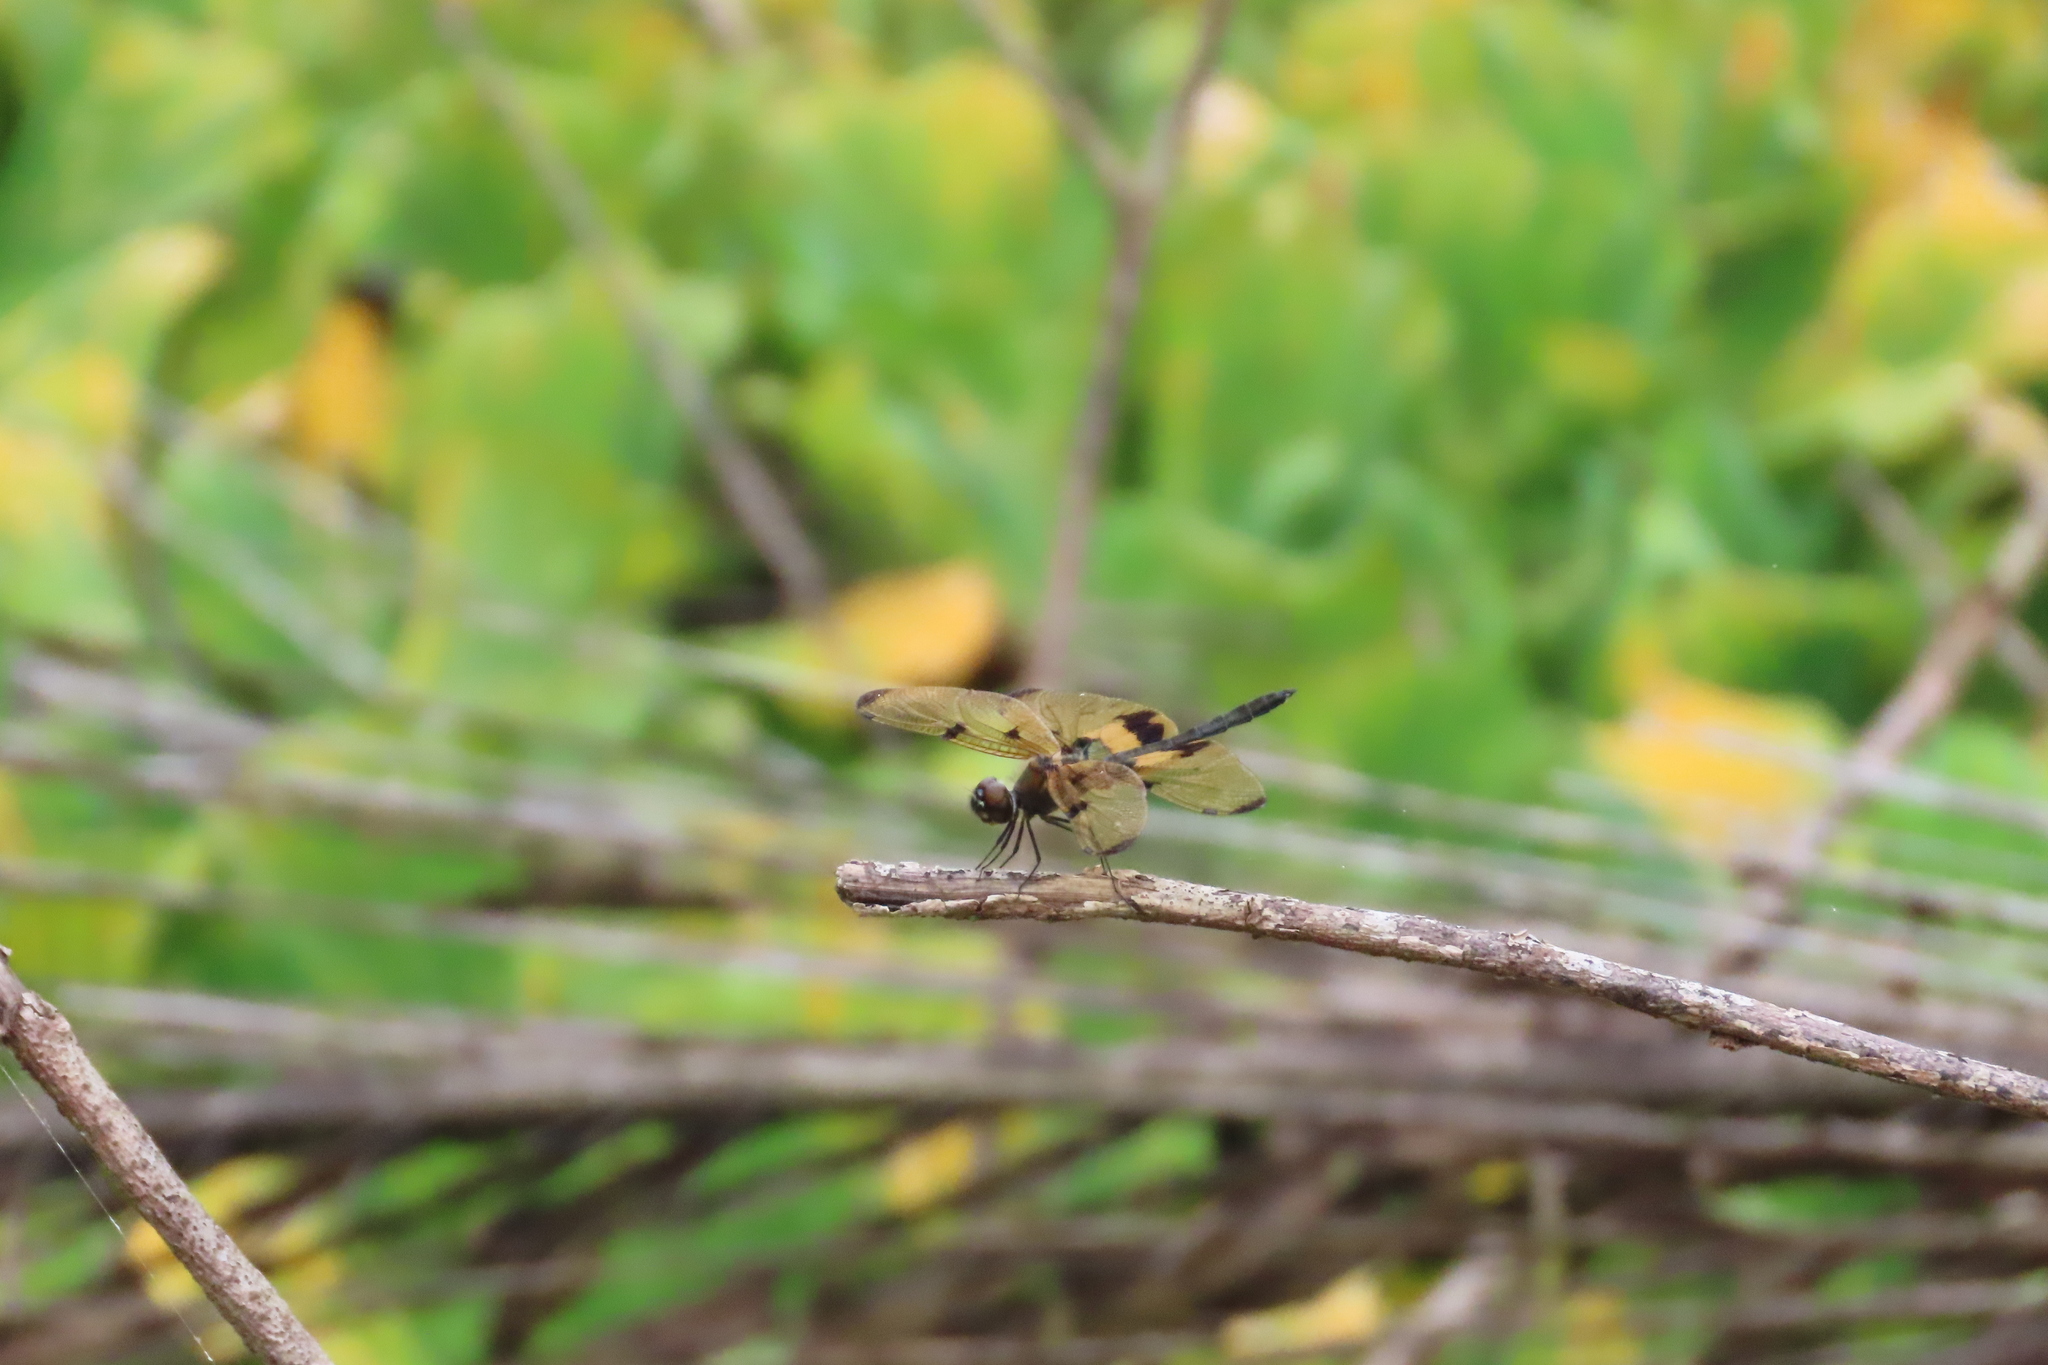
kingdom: Animalia
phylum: Arthropoda
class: Insecta
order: Odonata
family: Libellulidae
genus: Rhyothemis
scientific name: Rhyothemis variegata
